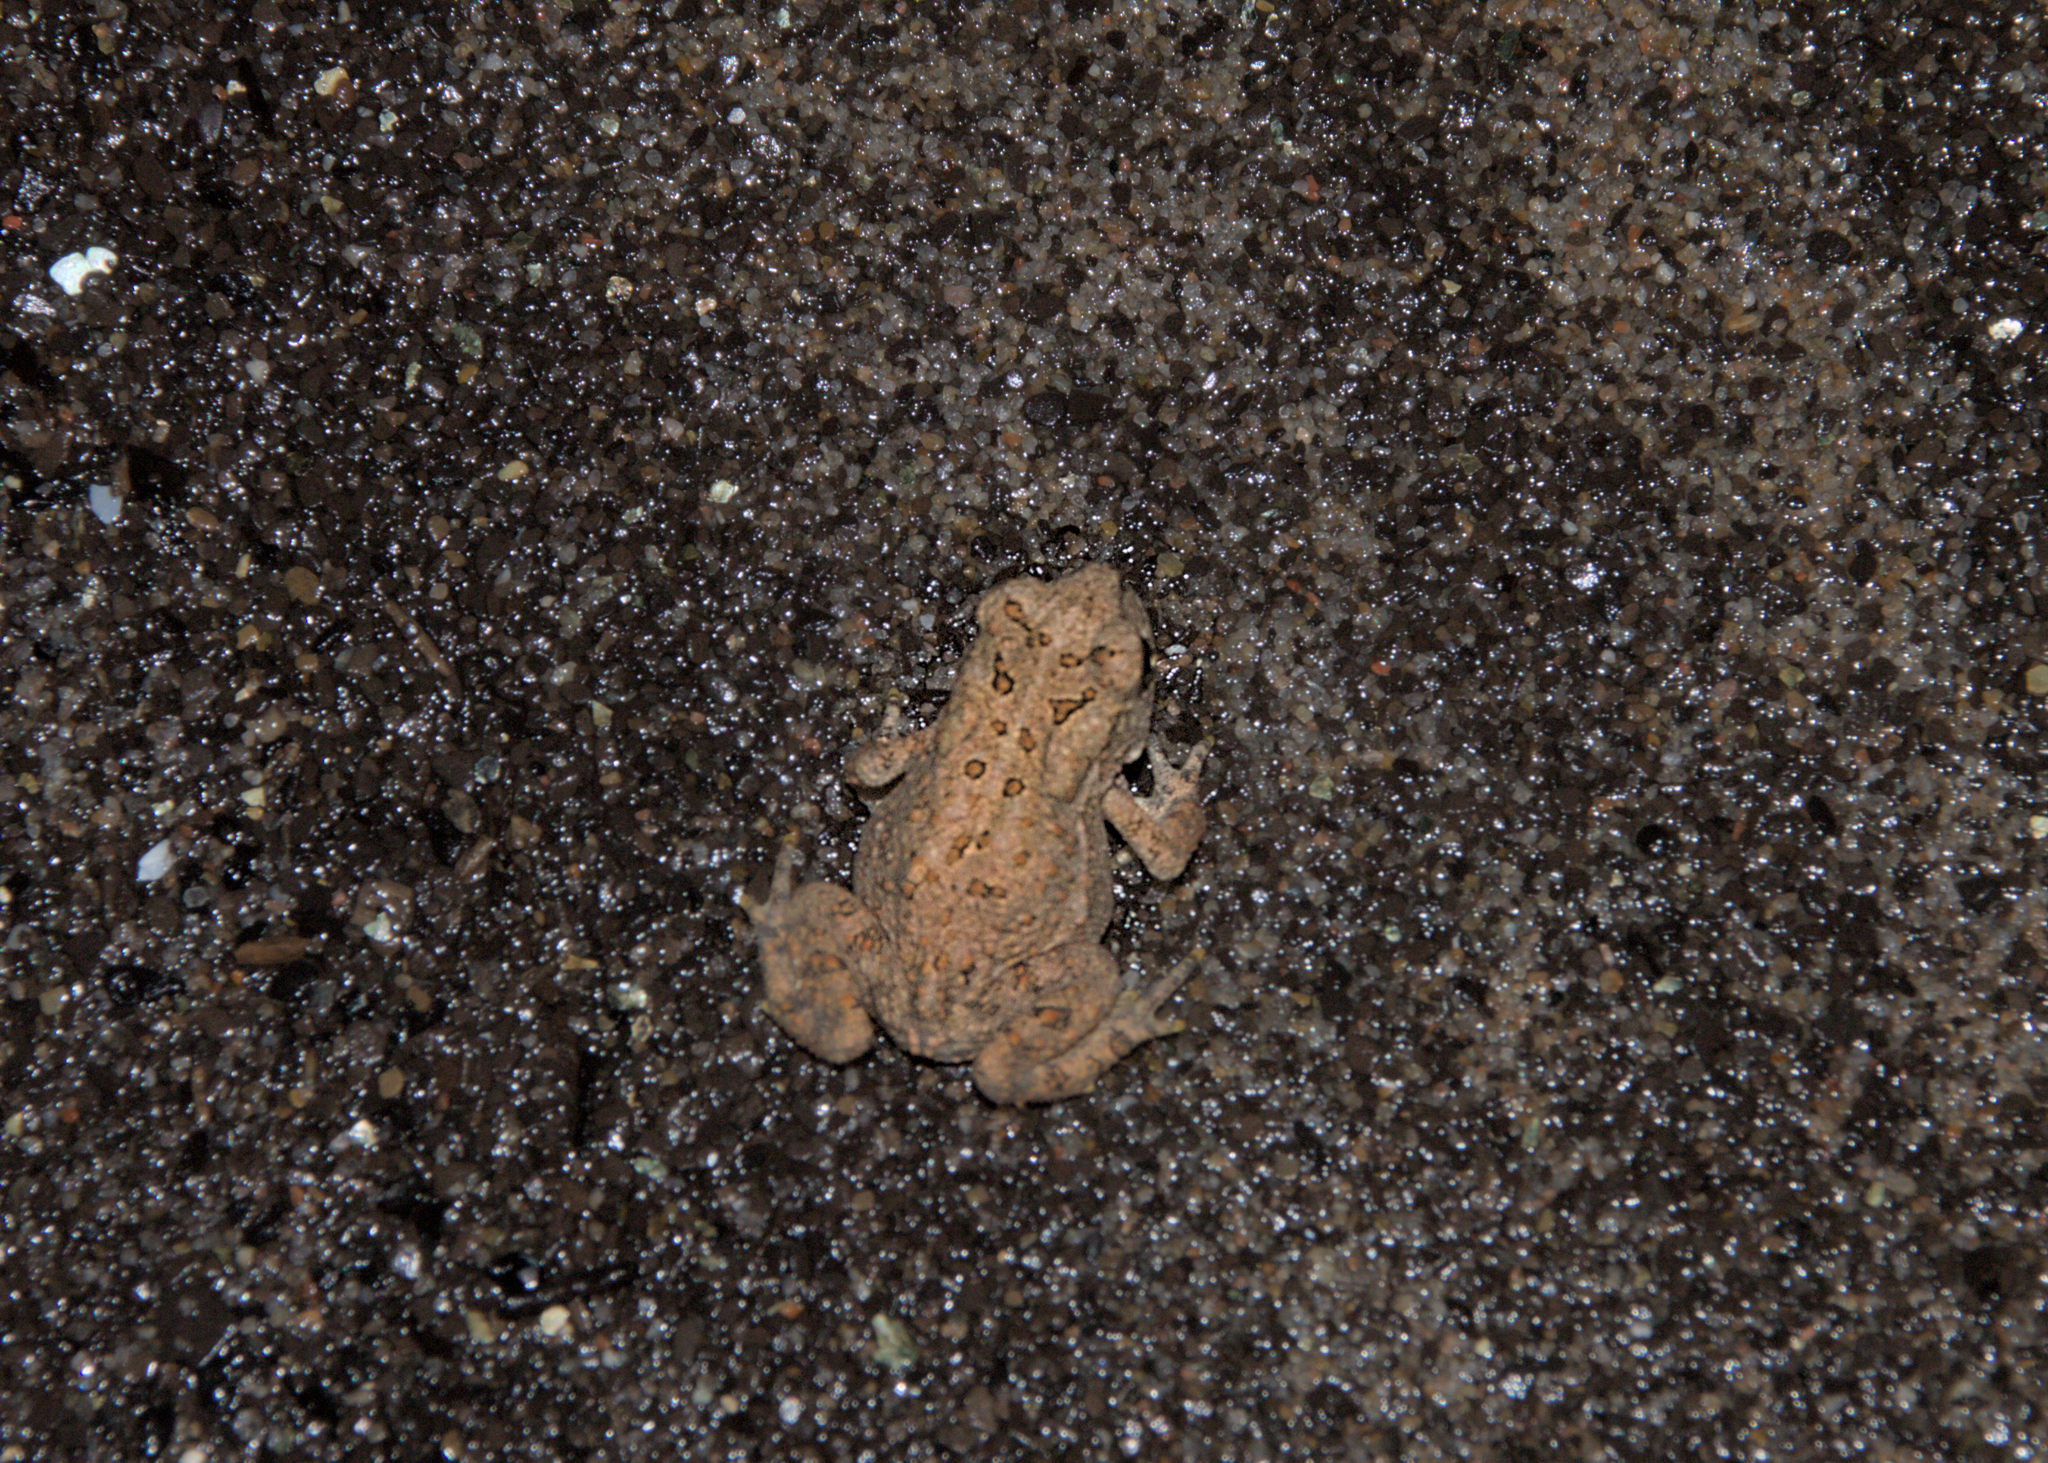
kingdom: Animalia
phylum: Chordata
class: Amphibia
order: Anura
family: Bufonidae
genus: Anaxyrus
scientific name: Anaxyrus americanus
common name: American toad
